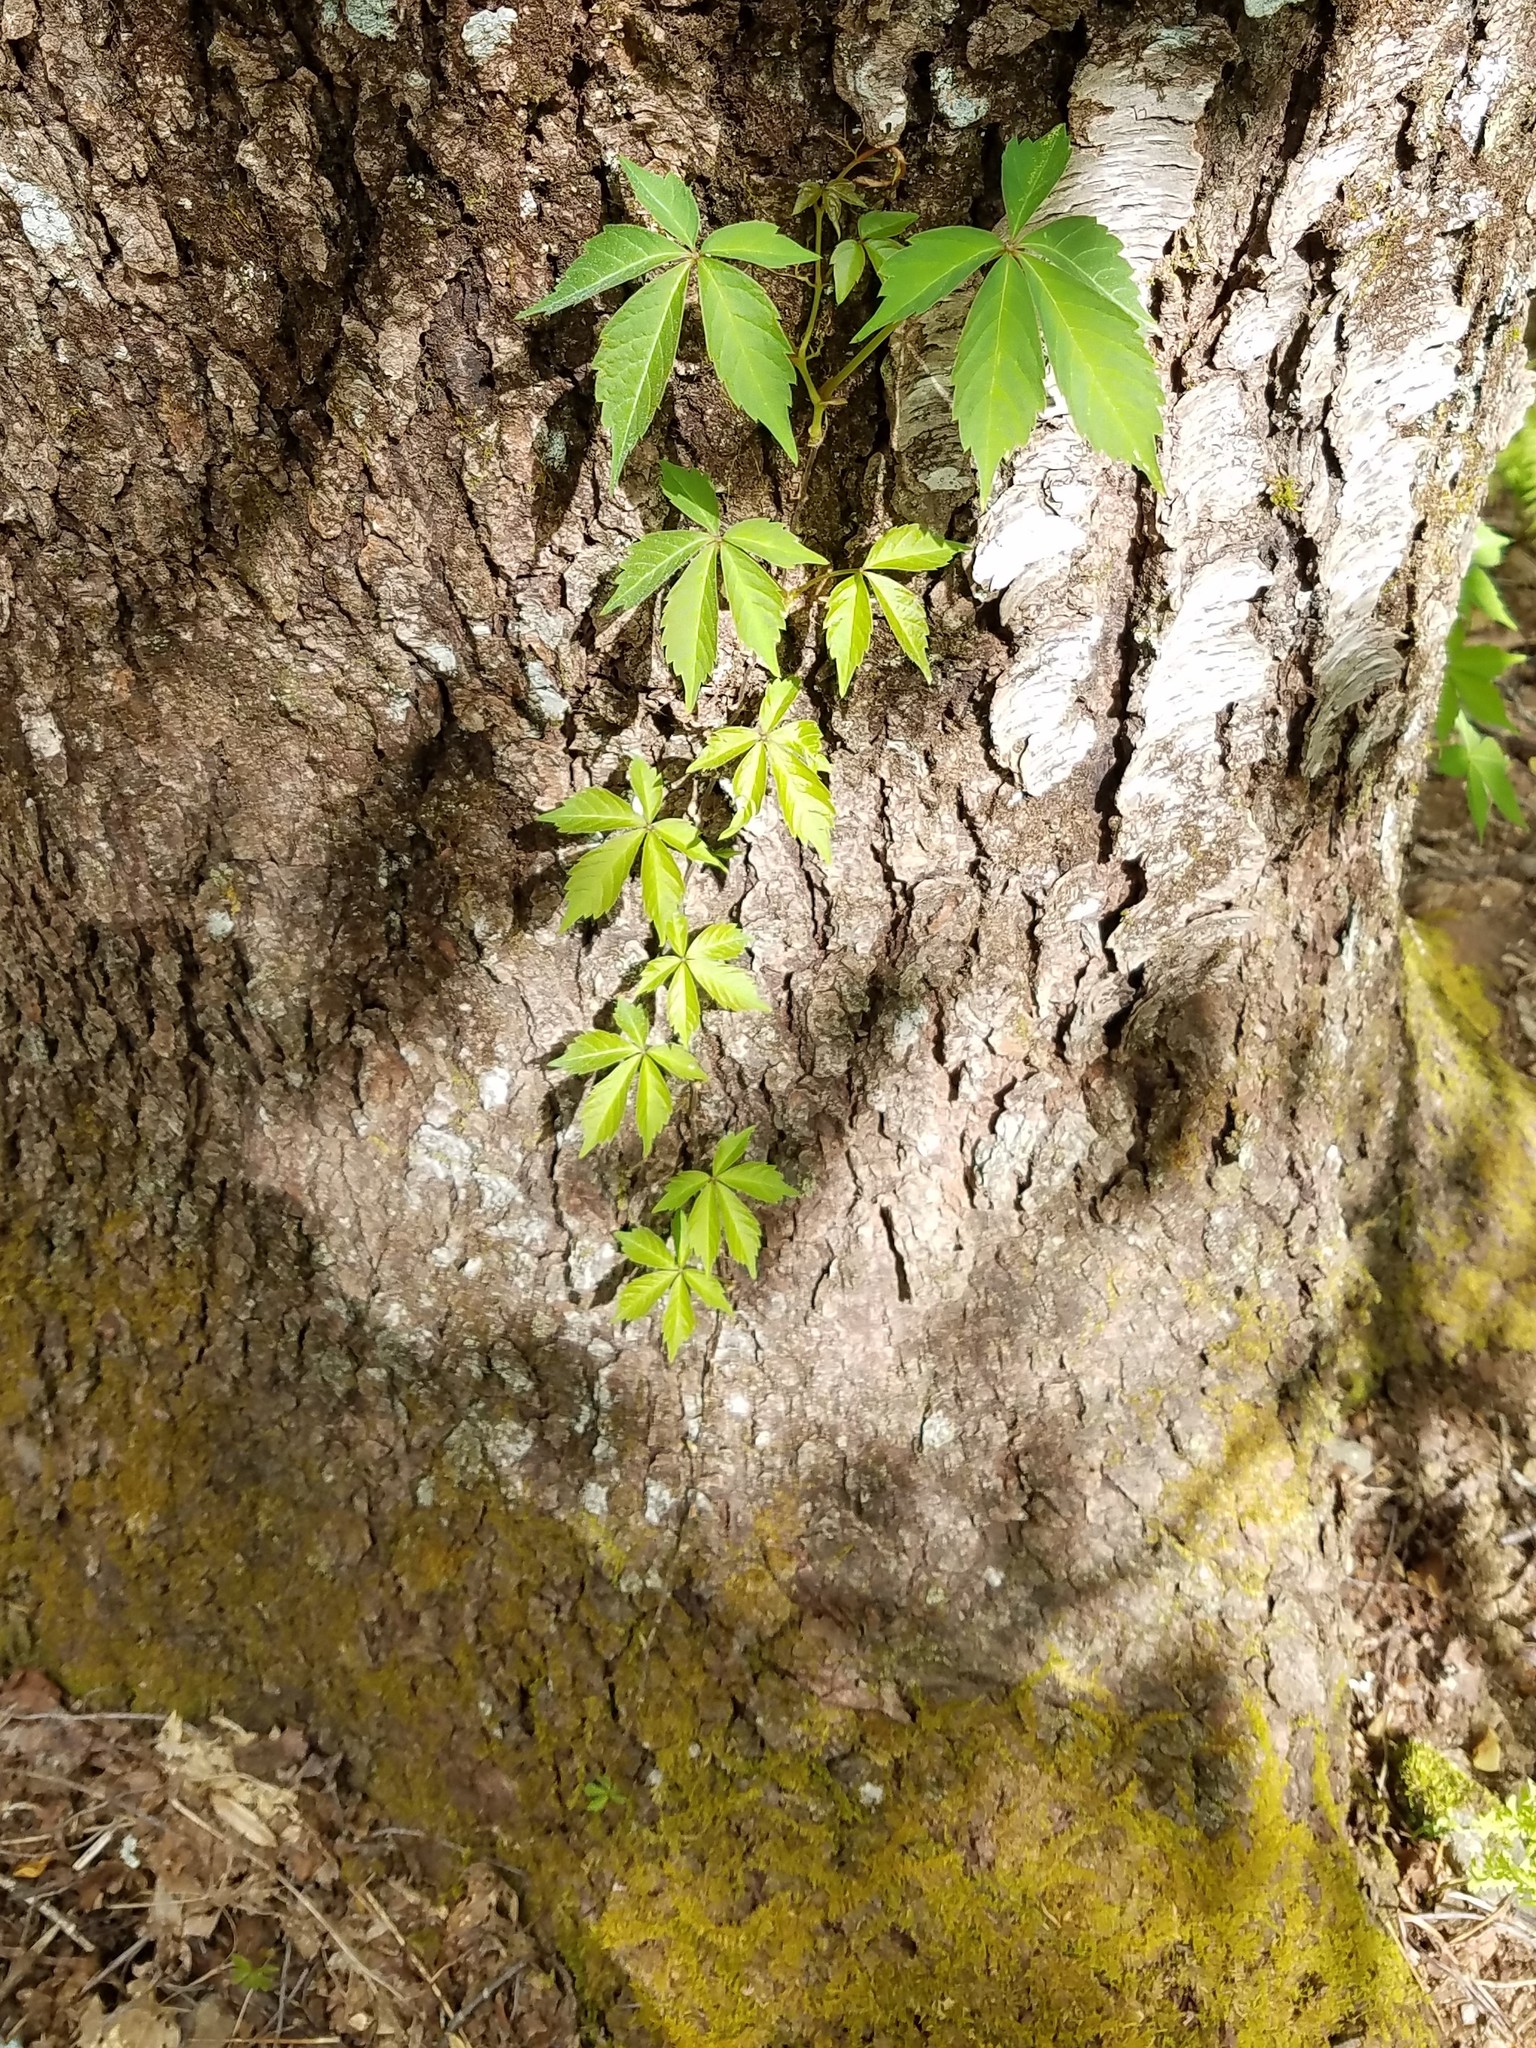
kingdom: Plantae
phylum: Tracheophyta
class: Magnoliopsida
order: Vitales
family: Vitaceae
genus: Parthenocissus
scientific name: Parthenocissus quinquefolia
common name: Virginia-creeper
